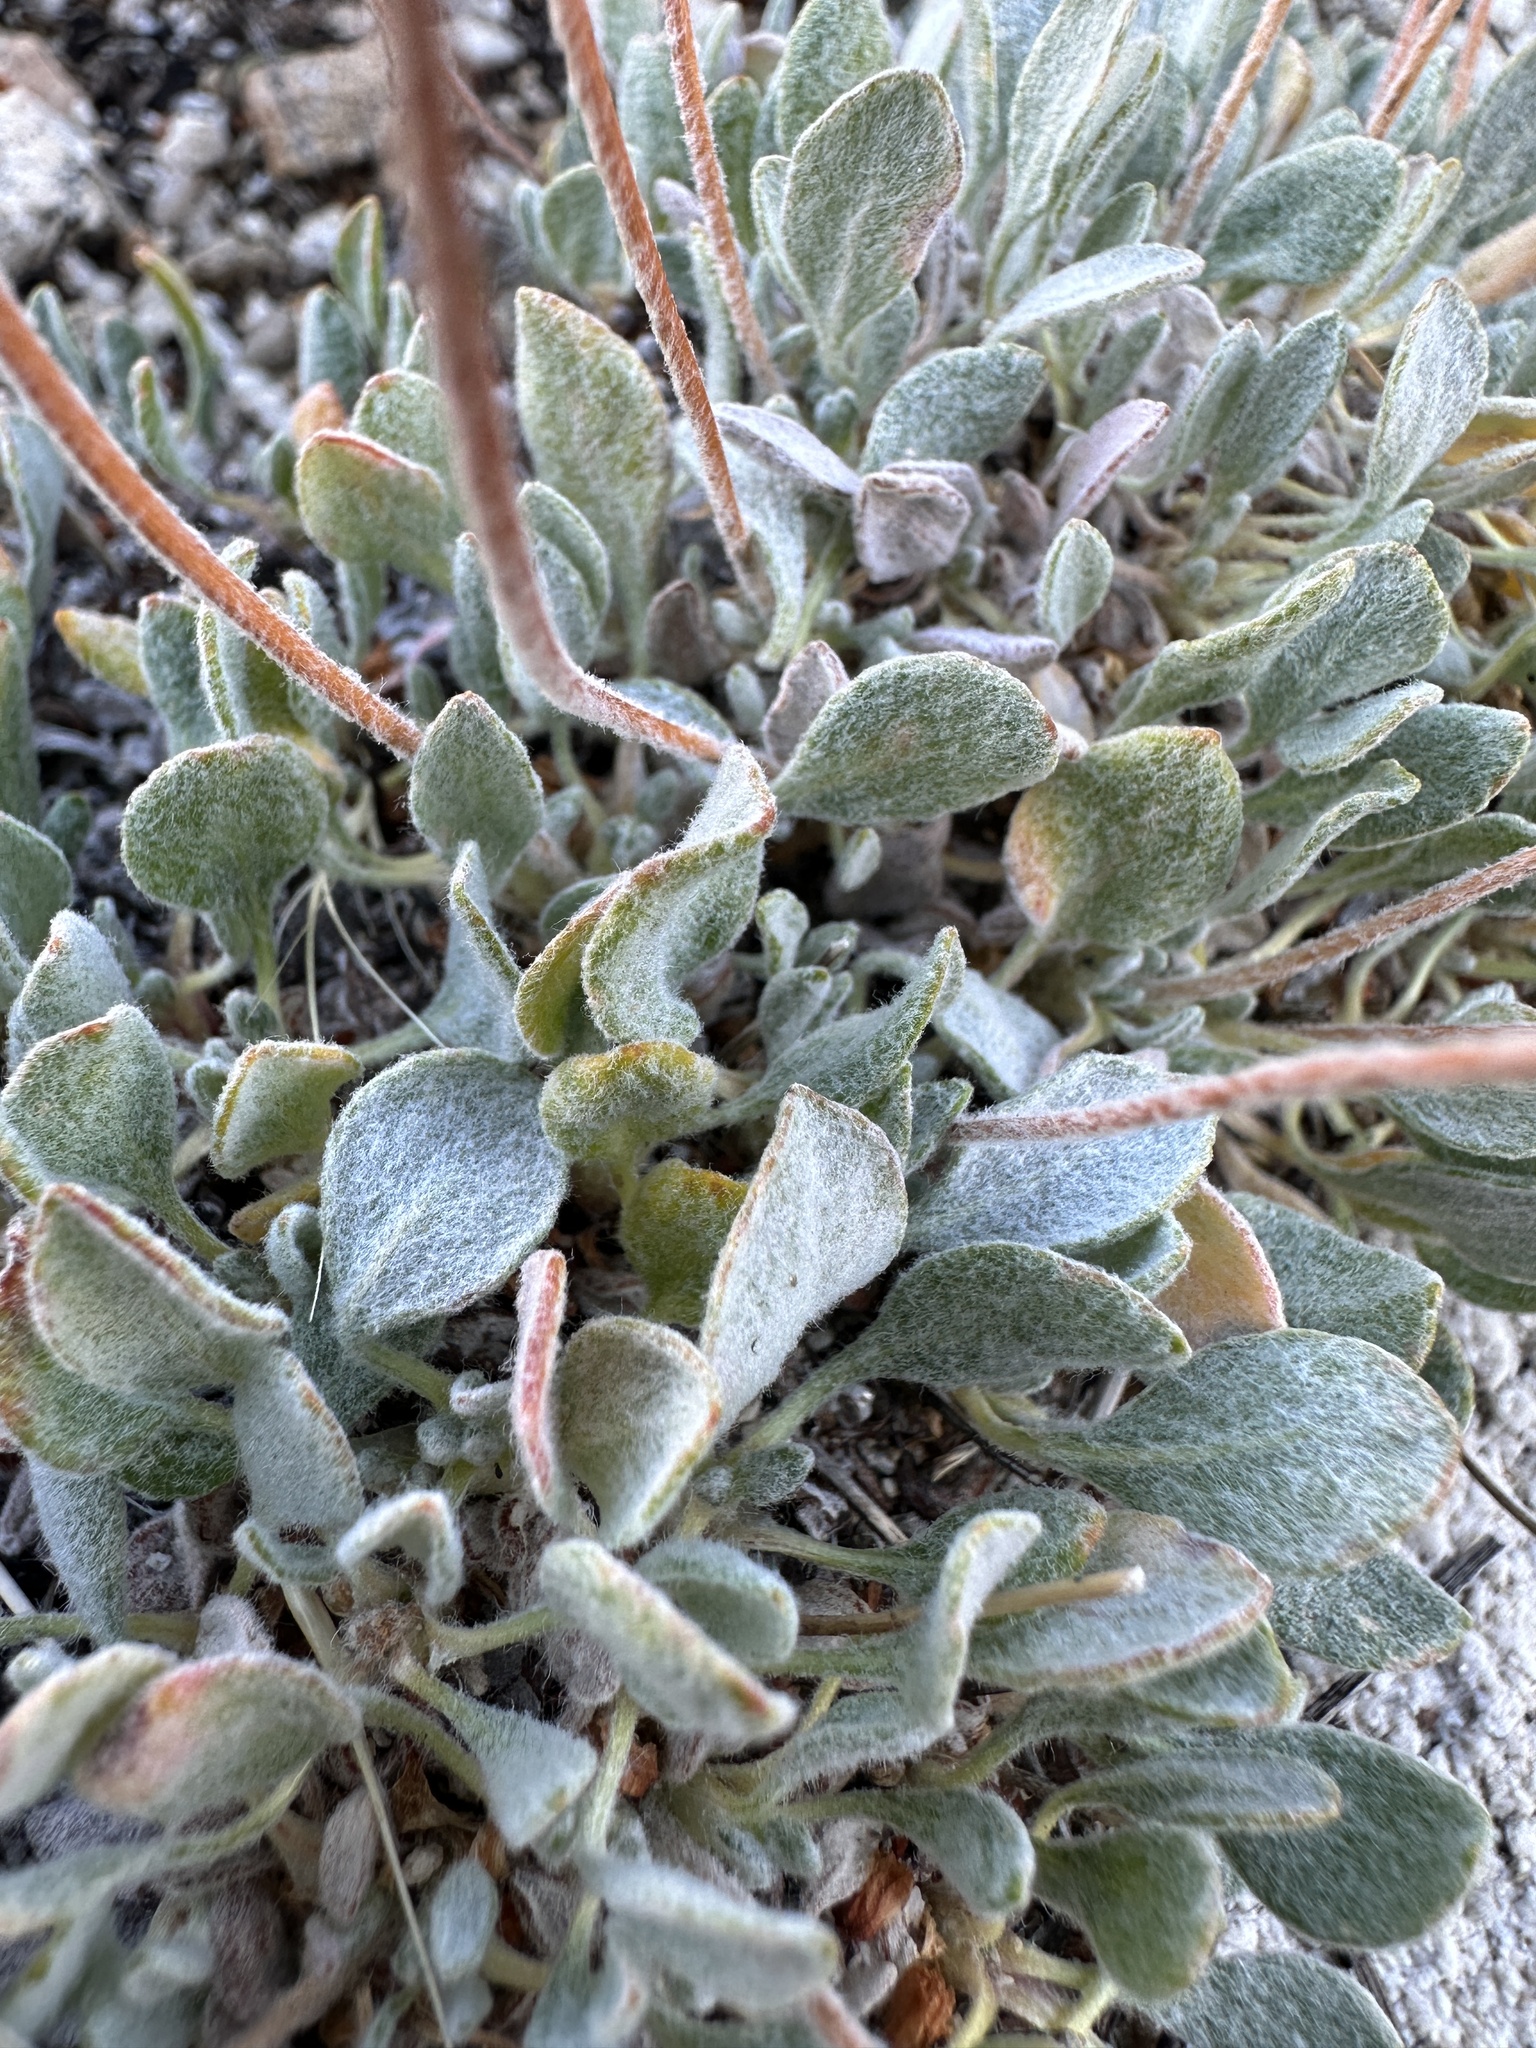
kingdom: Plantae
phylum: Tracheophyta
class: Magnoliopsida
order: Caryophyllales
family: Polygonaceae
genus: Eriogonum
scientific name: Eriogonum kingii
